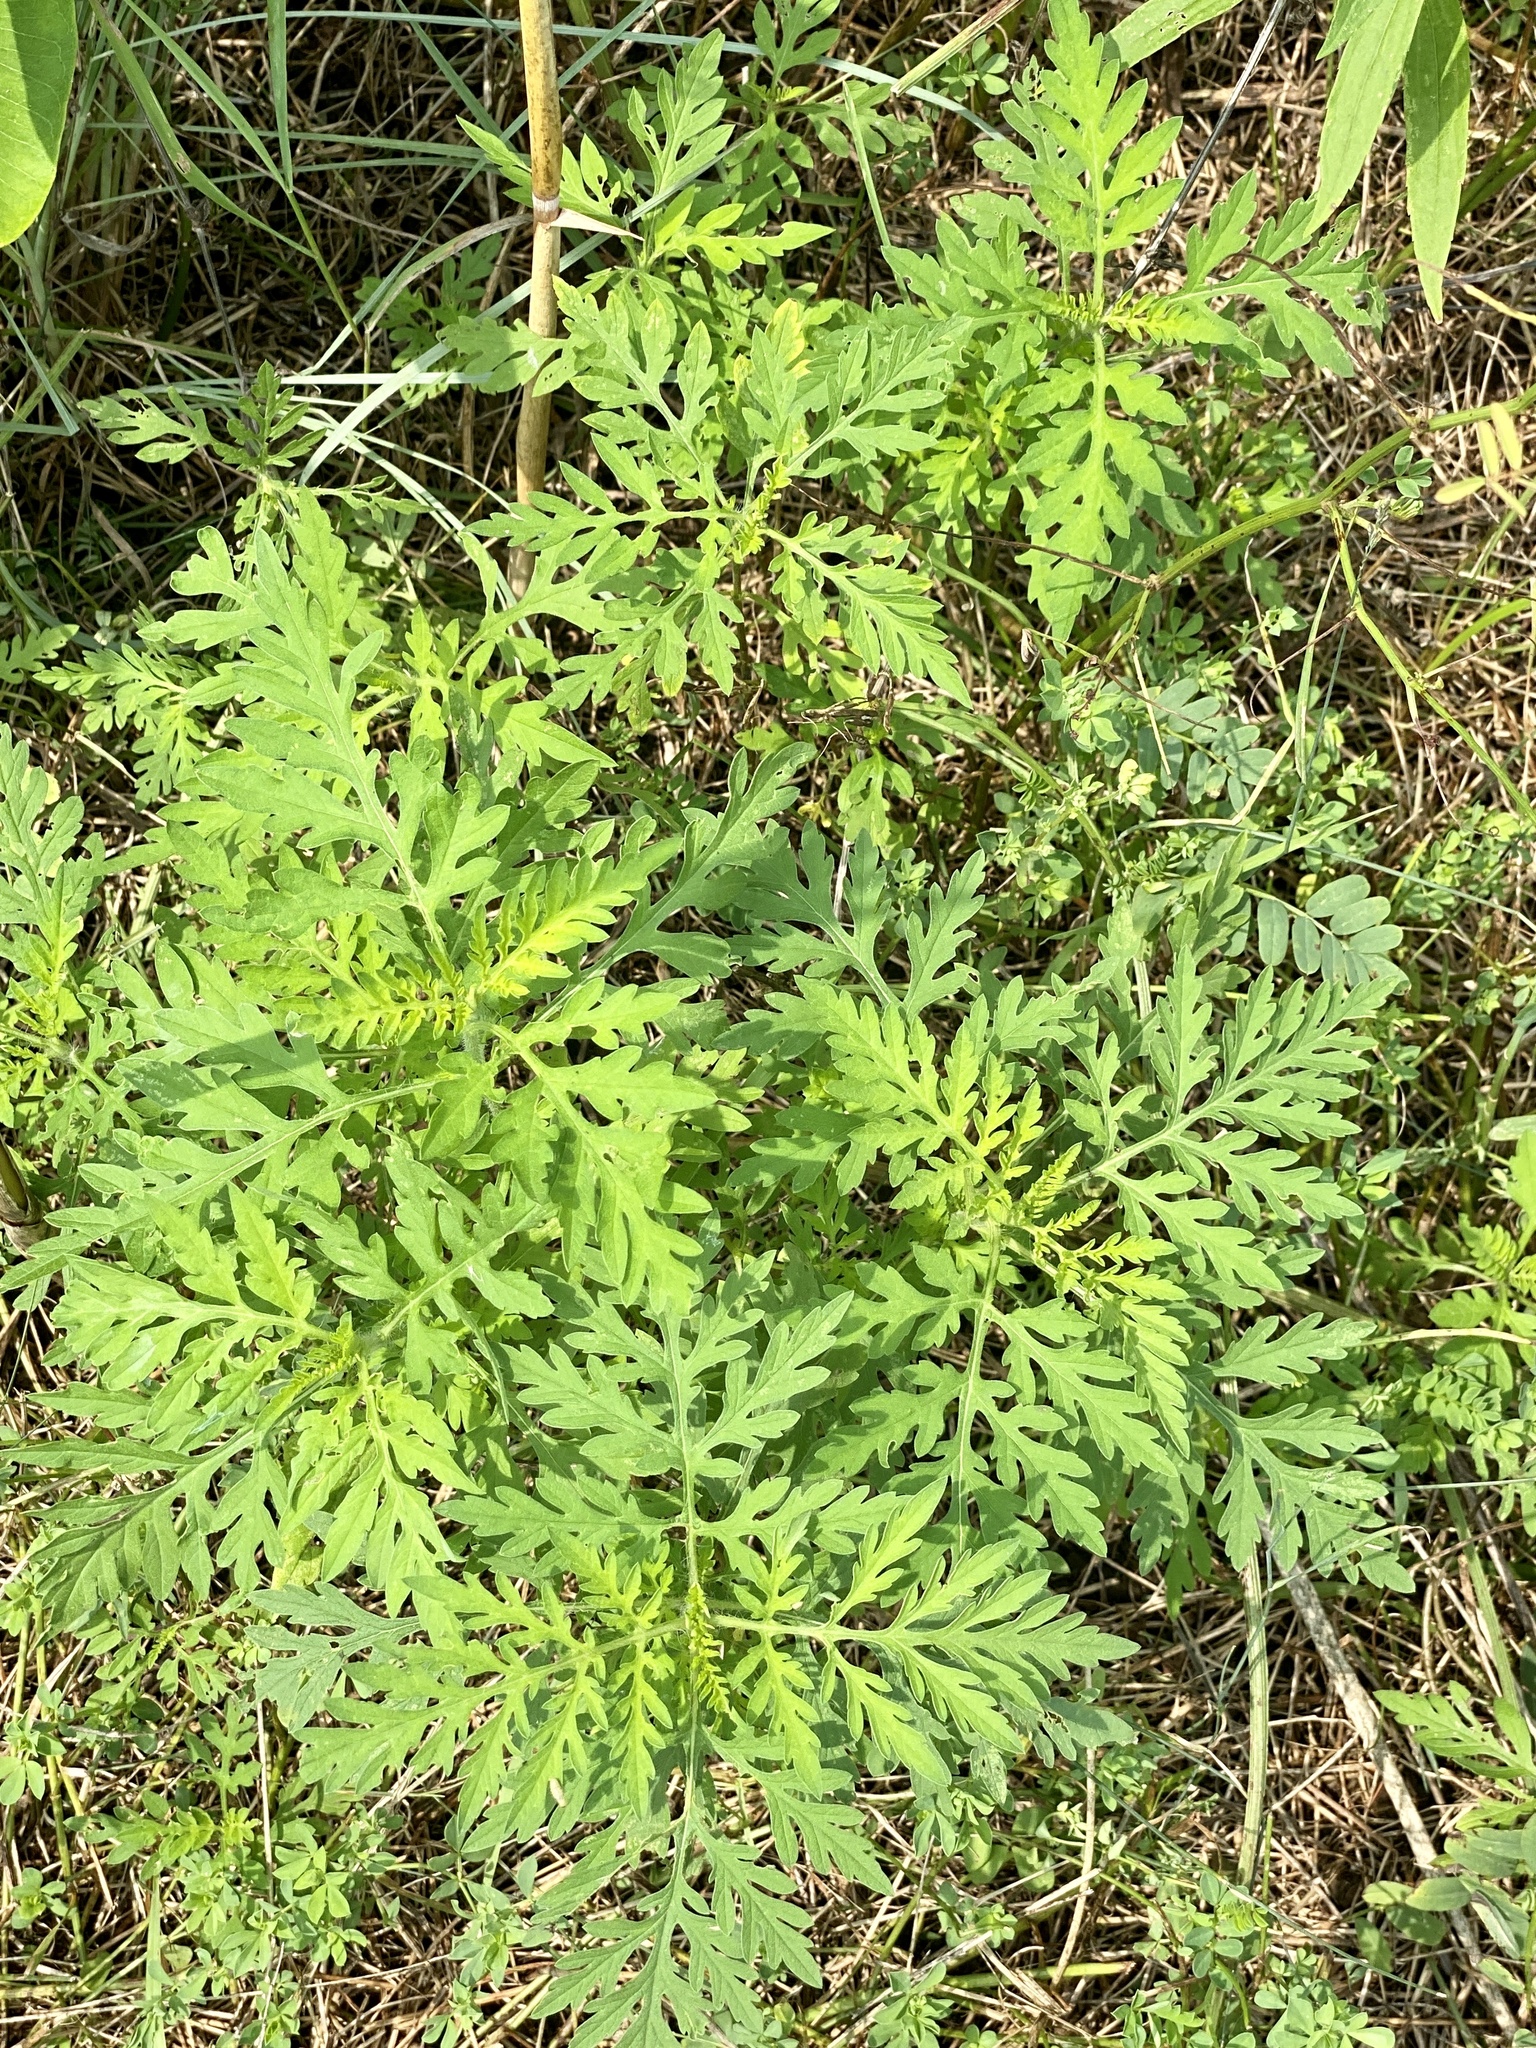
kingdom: Plantae
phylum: Tracheophyta
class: Magnoliopsida
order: Asterales
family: Asteraceae
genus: Ambrosia
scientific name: Ambrosia artemisiifolia
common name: Annual ragweed
